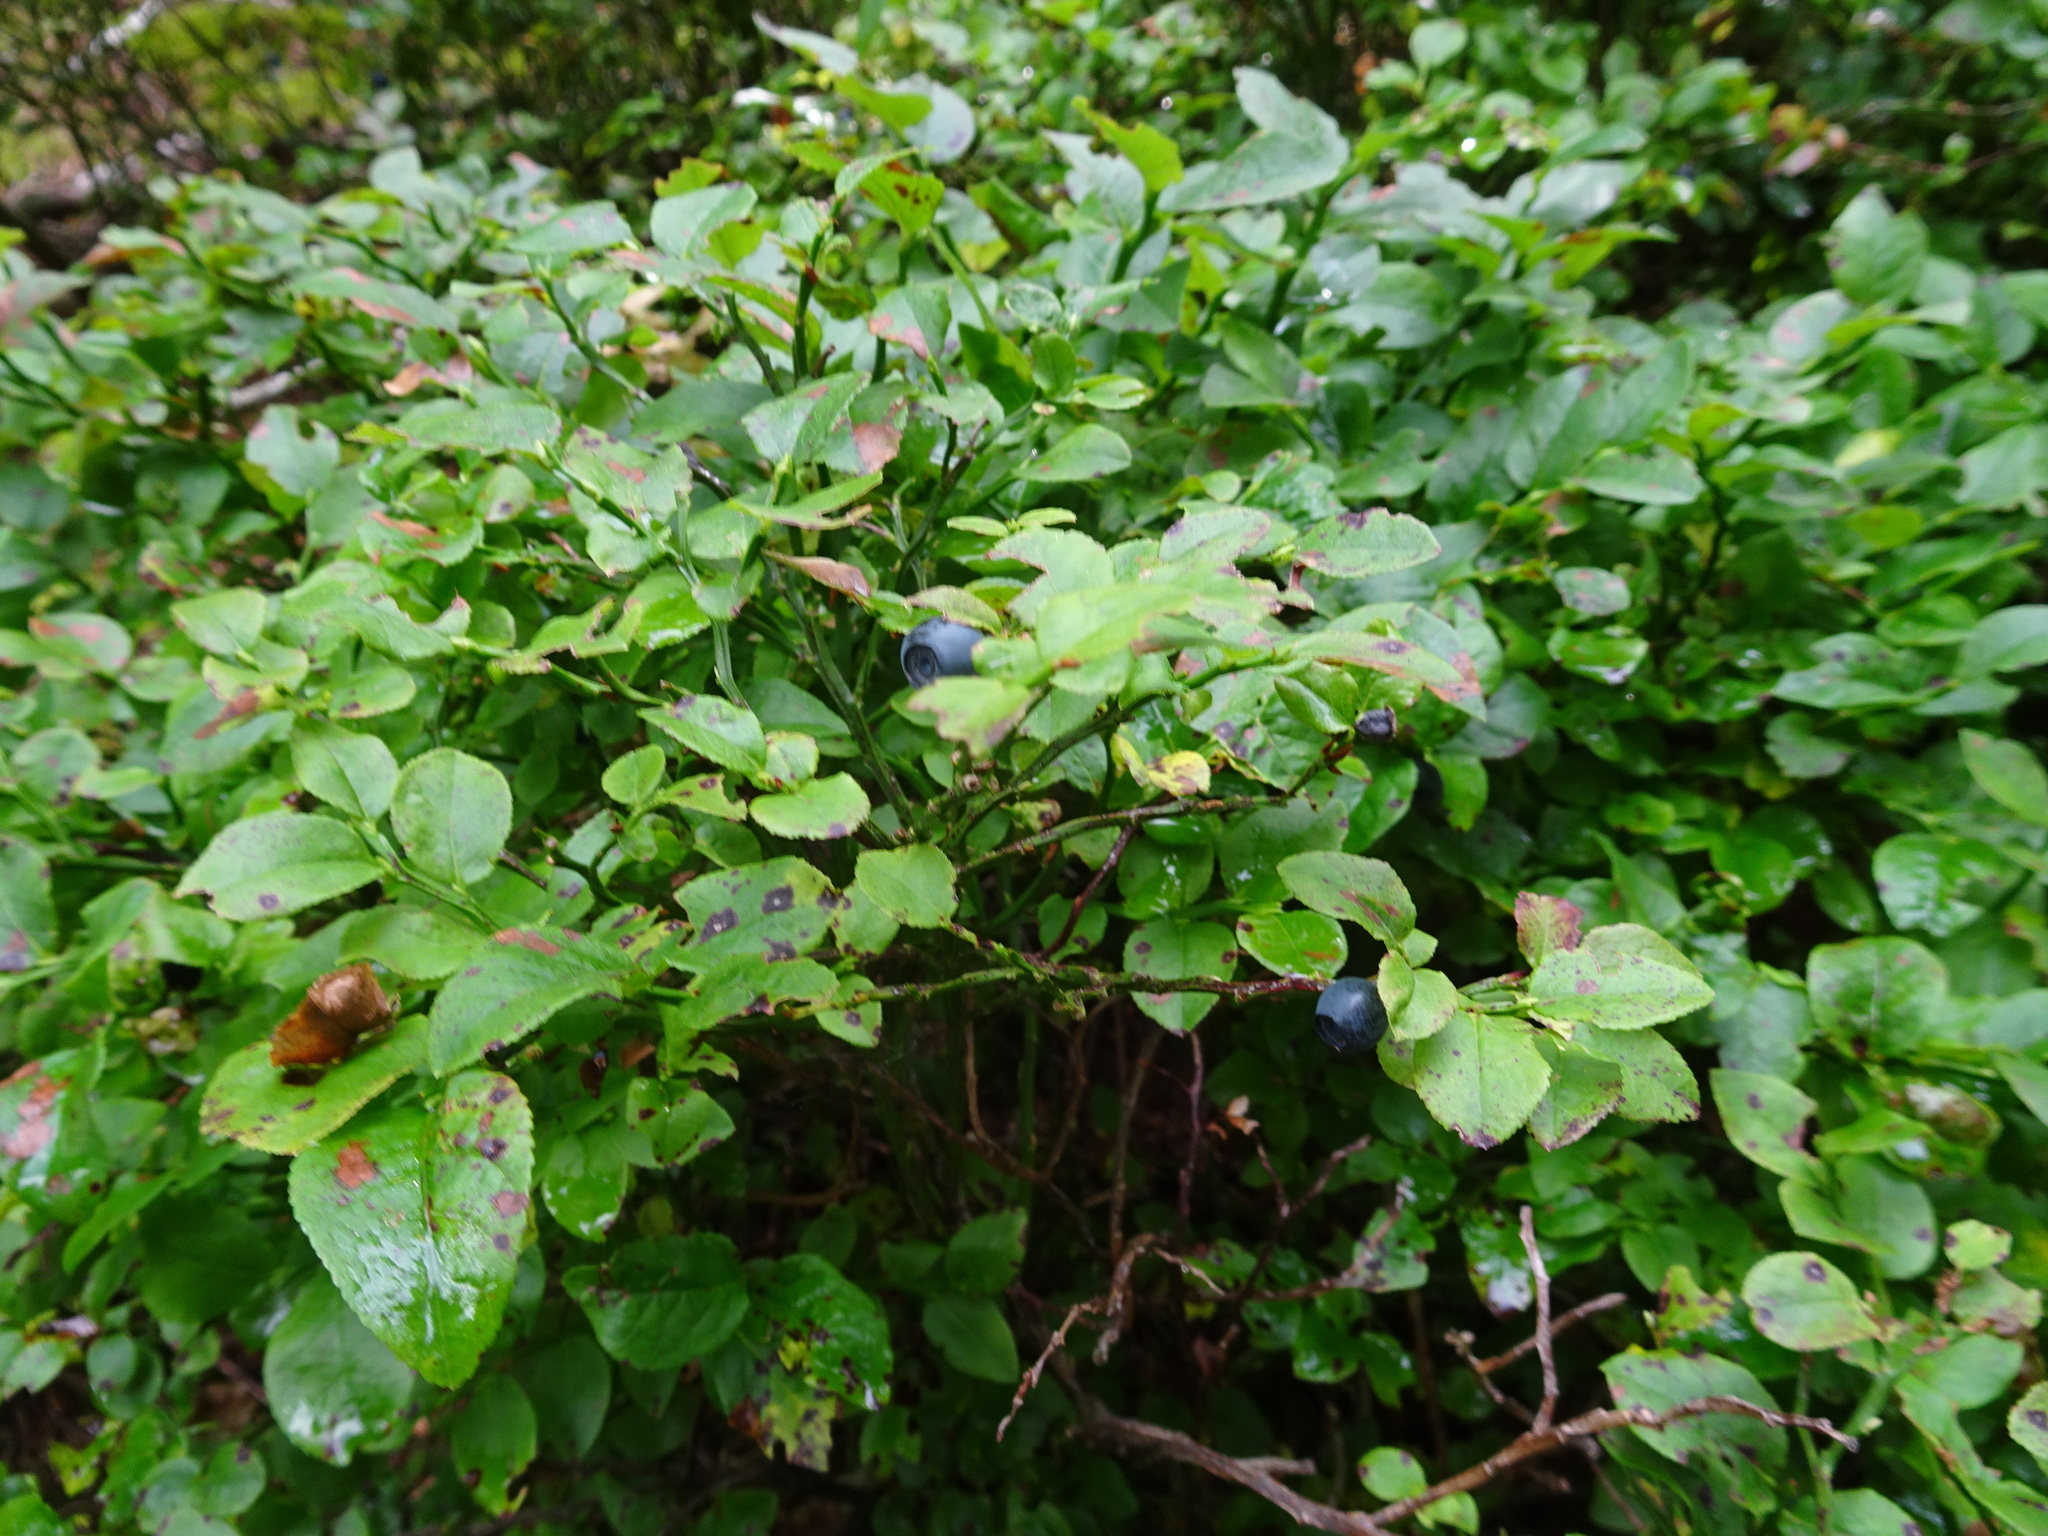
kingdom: Plantae
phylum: Tracheophyta
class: Magnoliopsida
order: Ericales
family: Ericaceae
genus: Vaccinium
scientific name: Vaccinium myrtillus
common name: Bilberry
